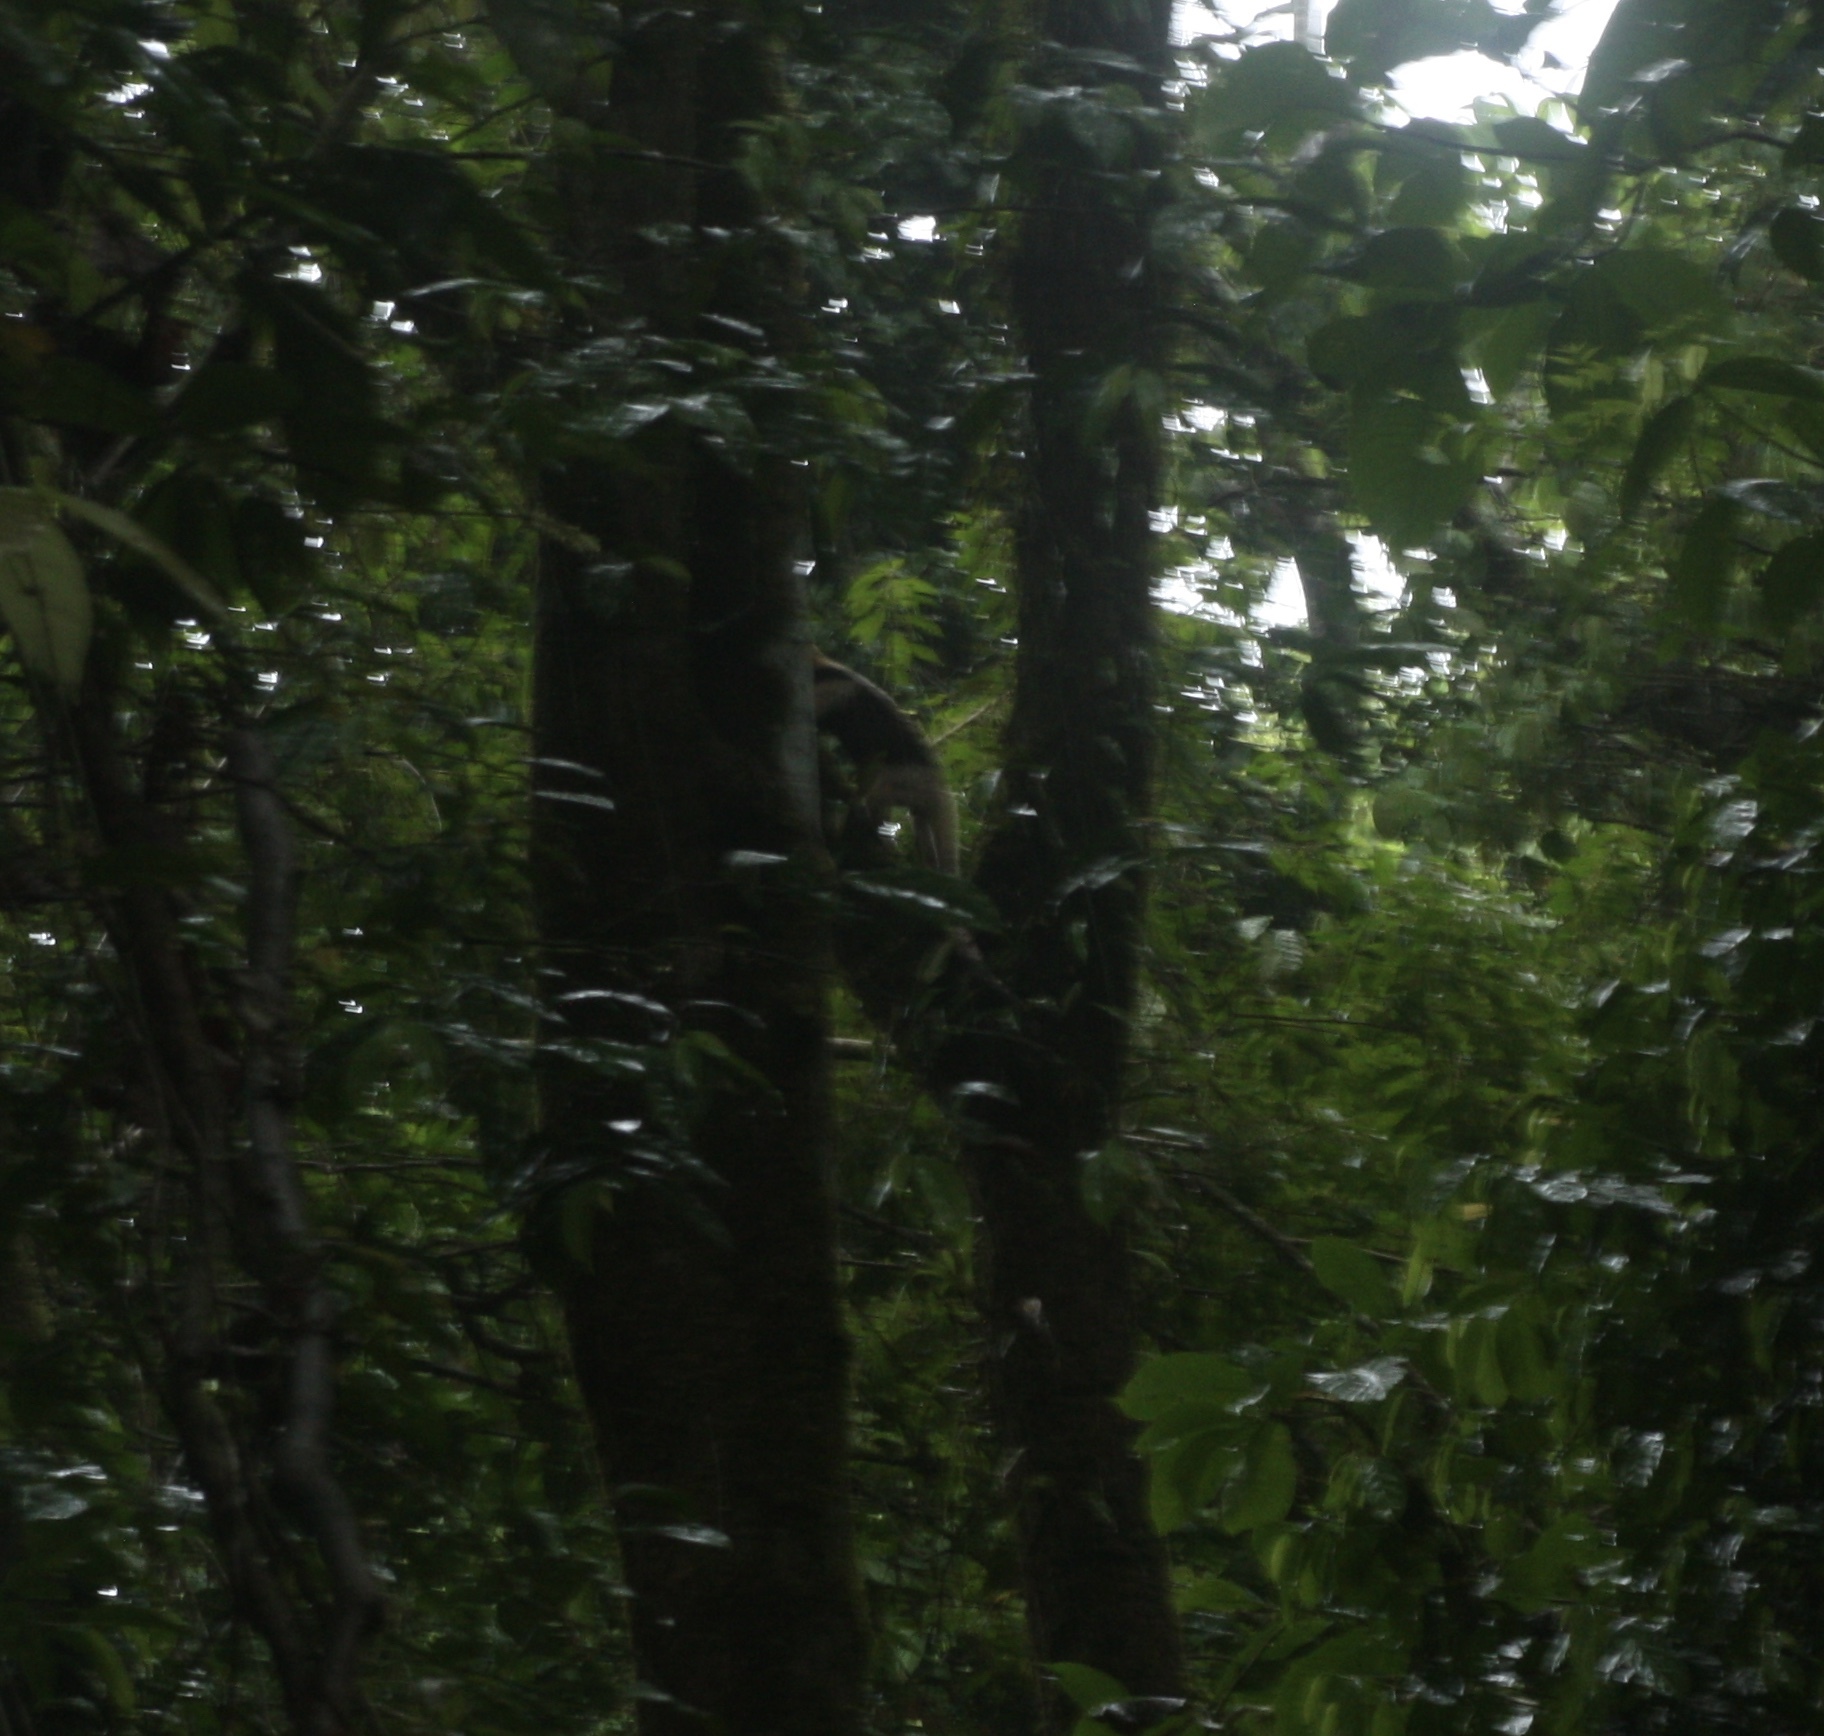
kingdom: Animalia
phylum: Chordata
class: Mammalia
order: Pilosa
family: Myrmecophagidae
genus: Tamandua
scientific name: Tamandua mexicana
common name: Northern tamandua
